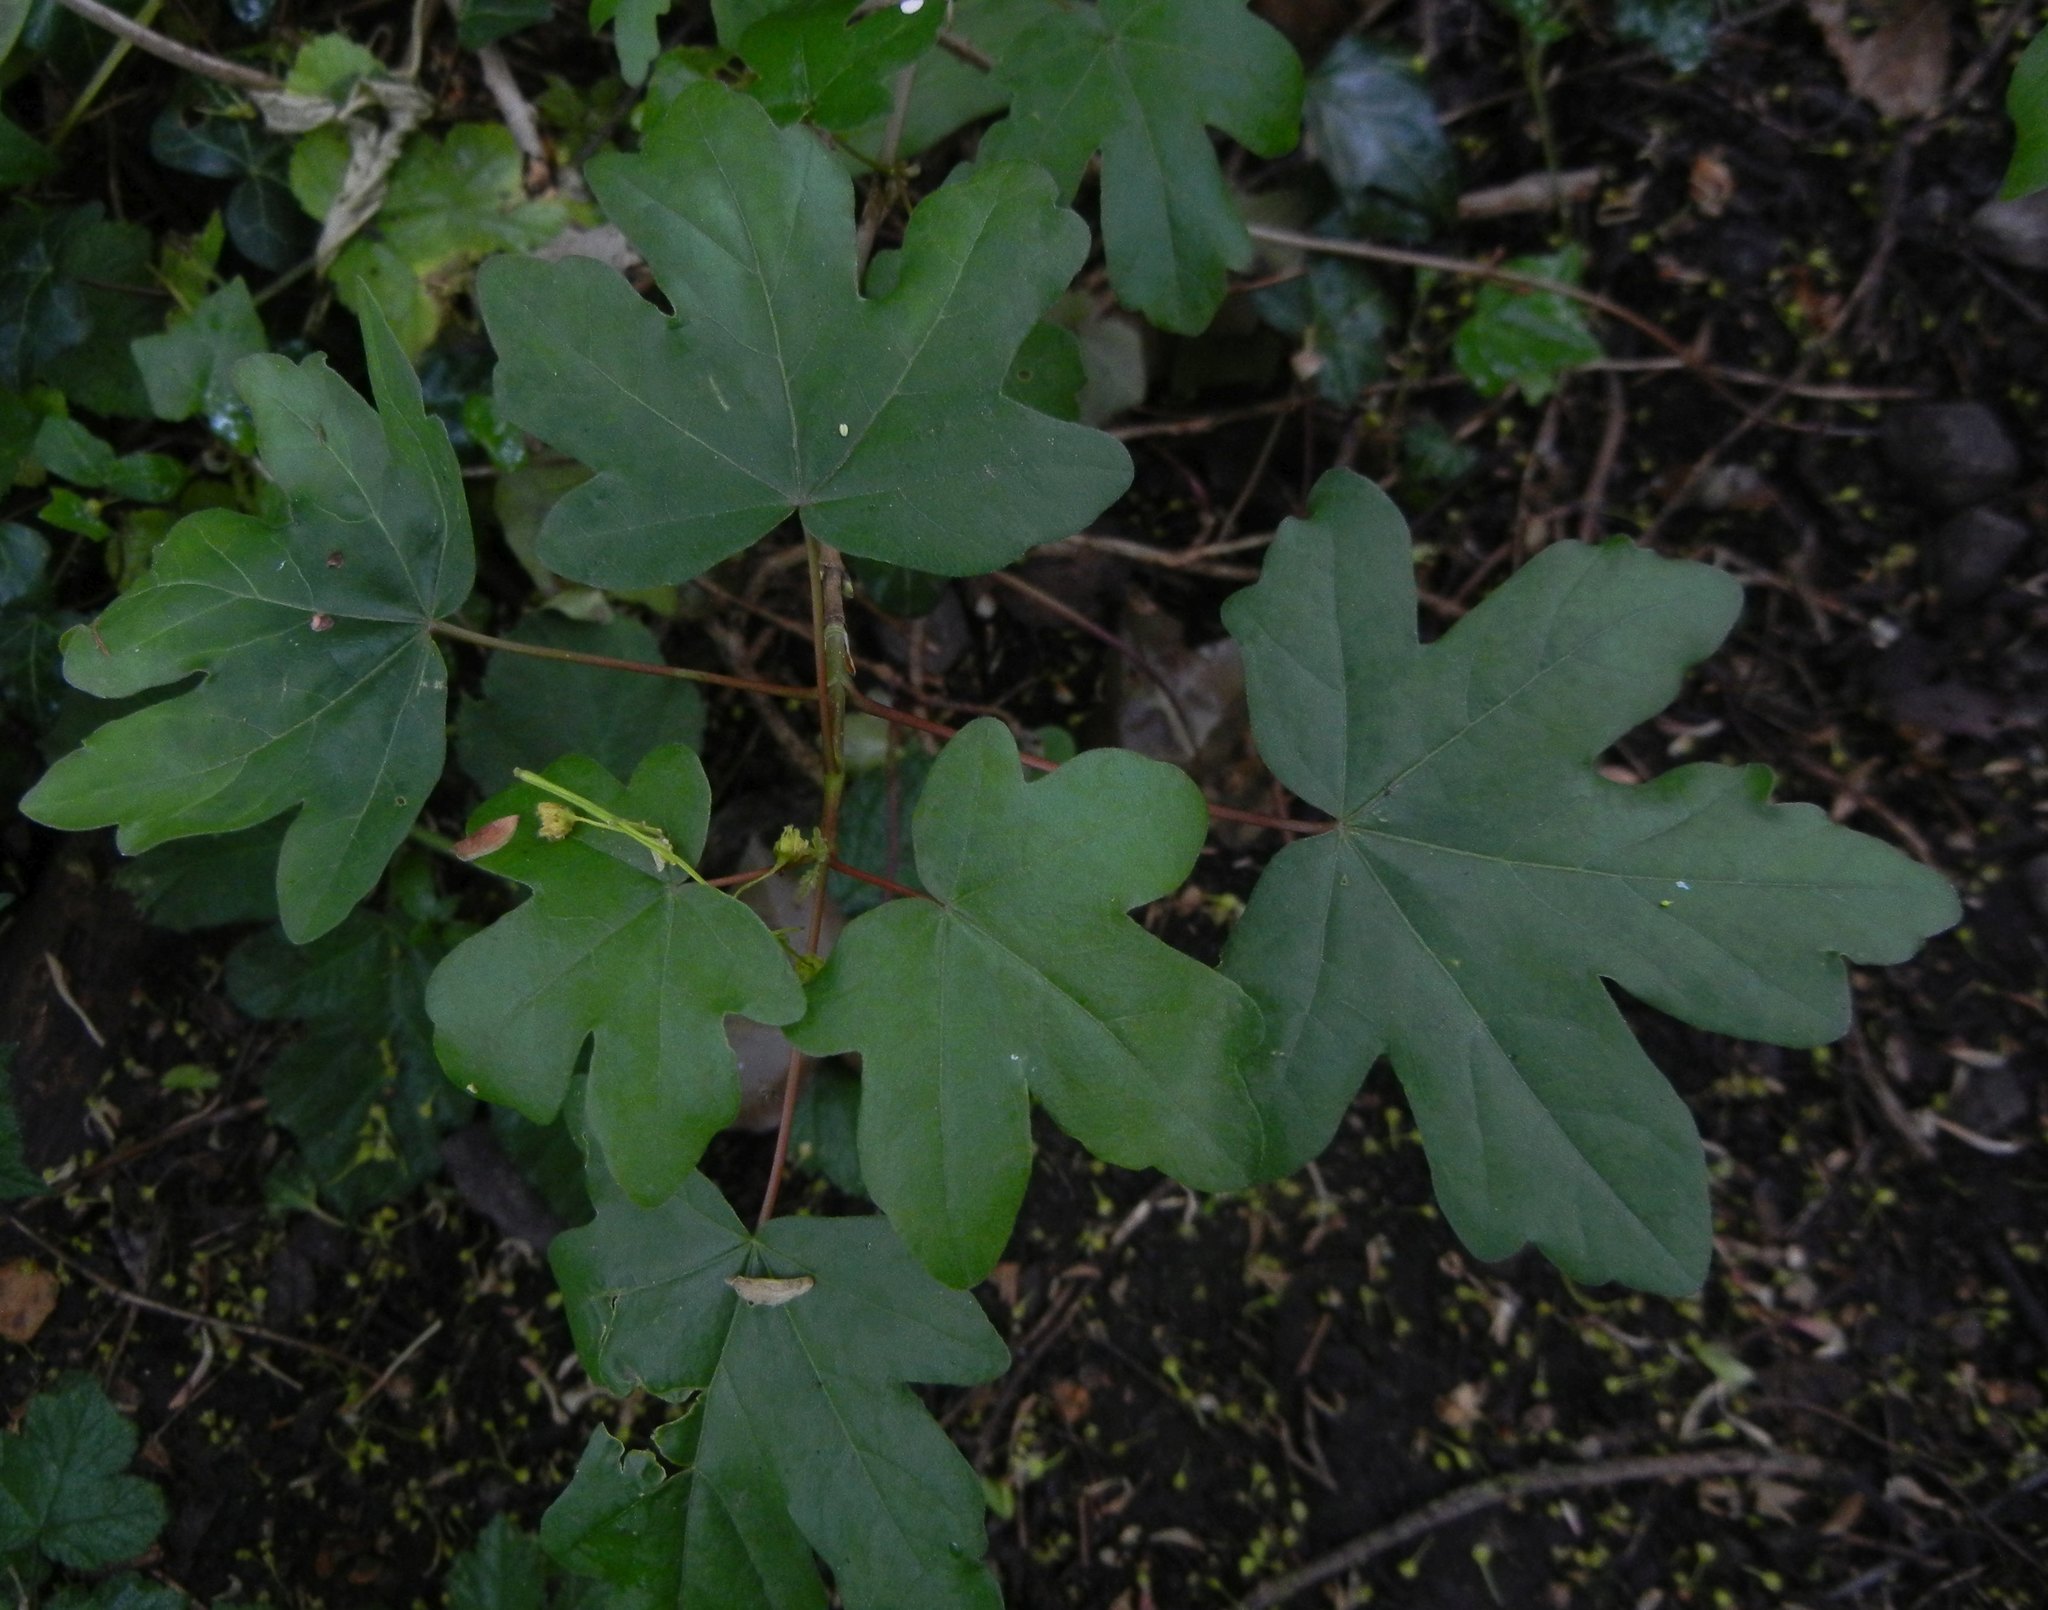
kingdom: Plantae
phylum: Tracheophyta
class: Magnoliopsida
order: Sapindales
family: Sapindaceae
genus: Acer
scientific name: Acer campestre
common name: Field maple
